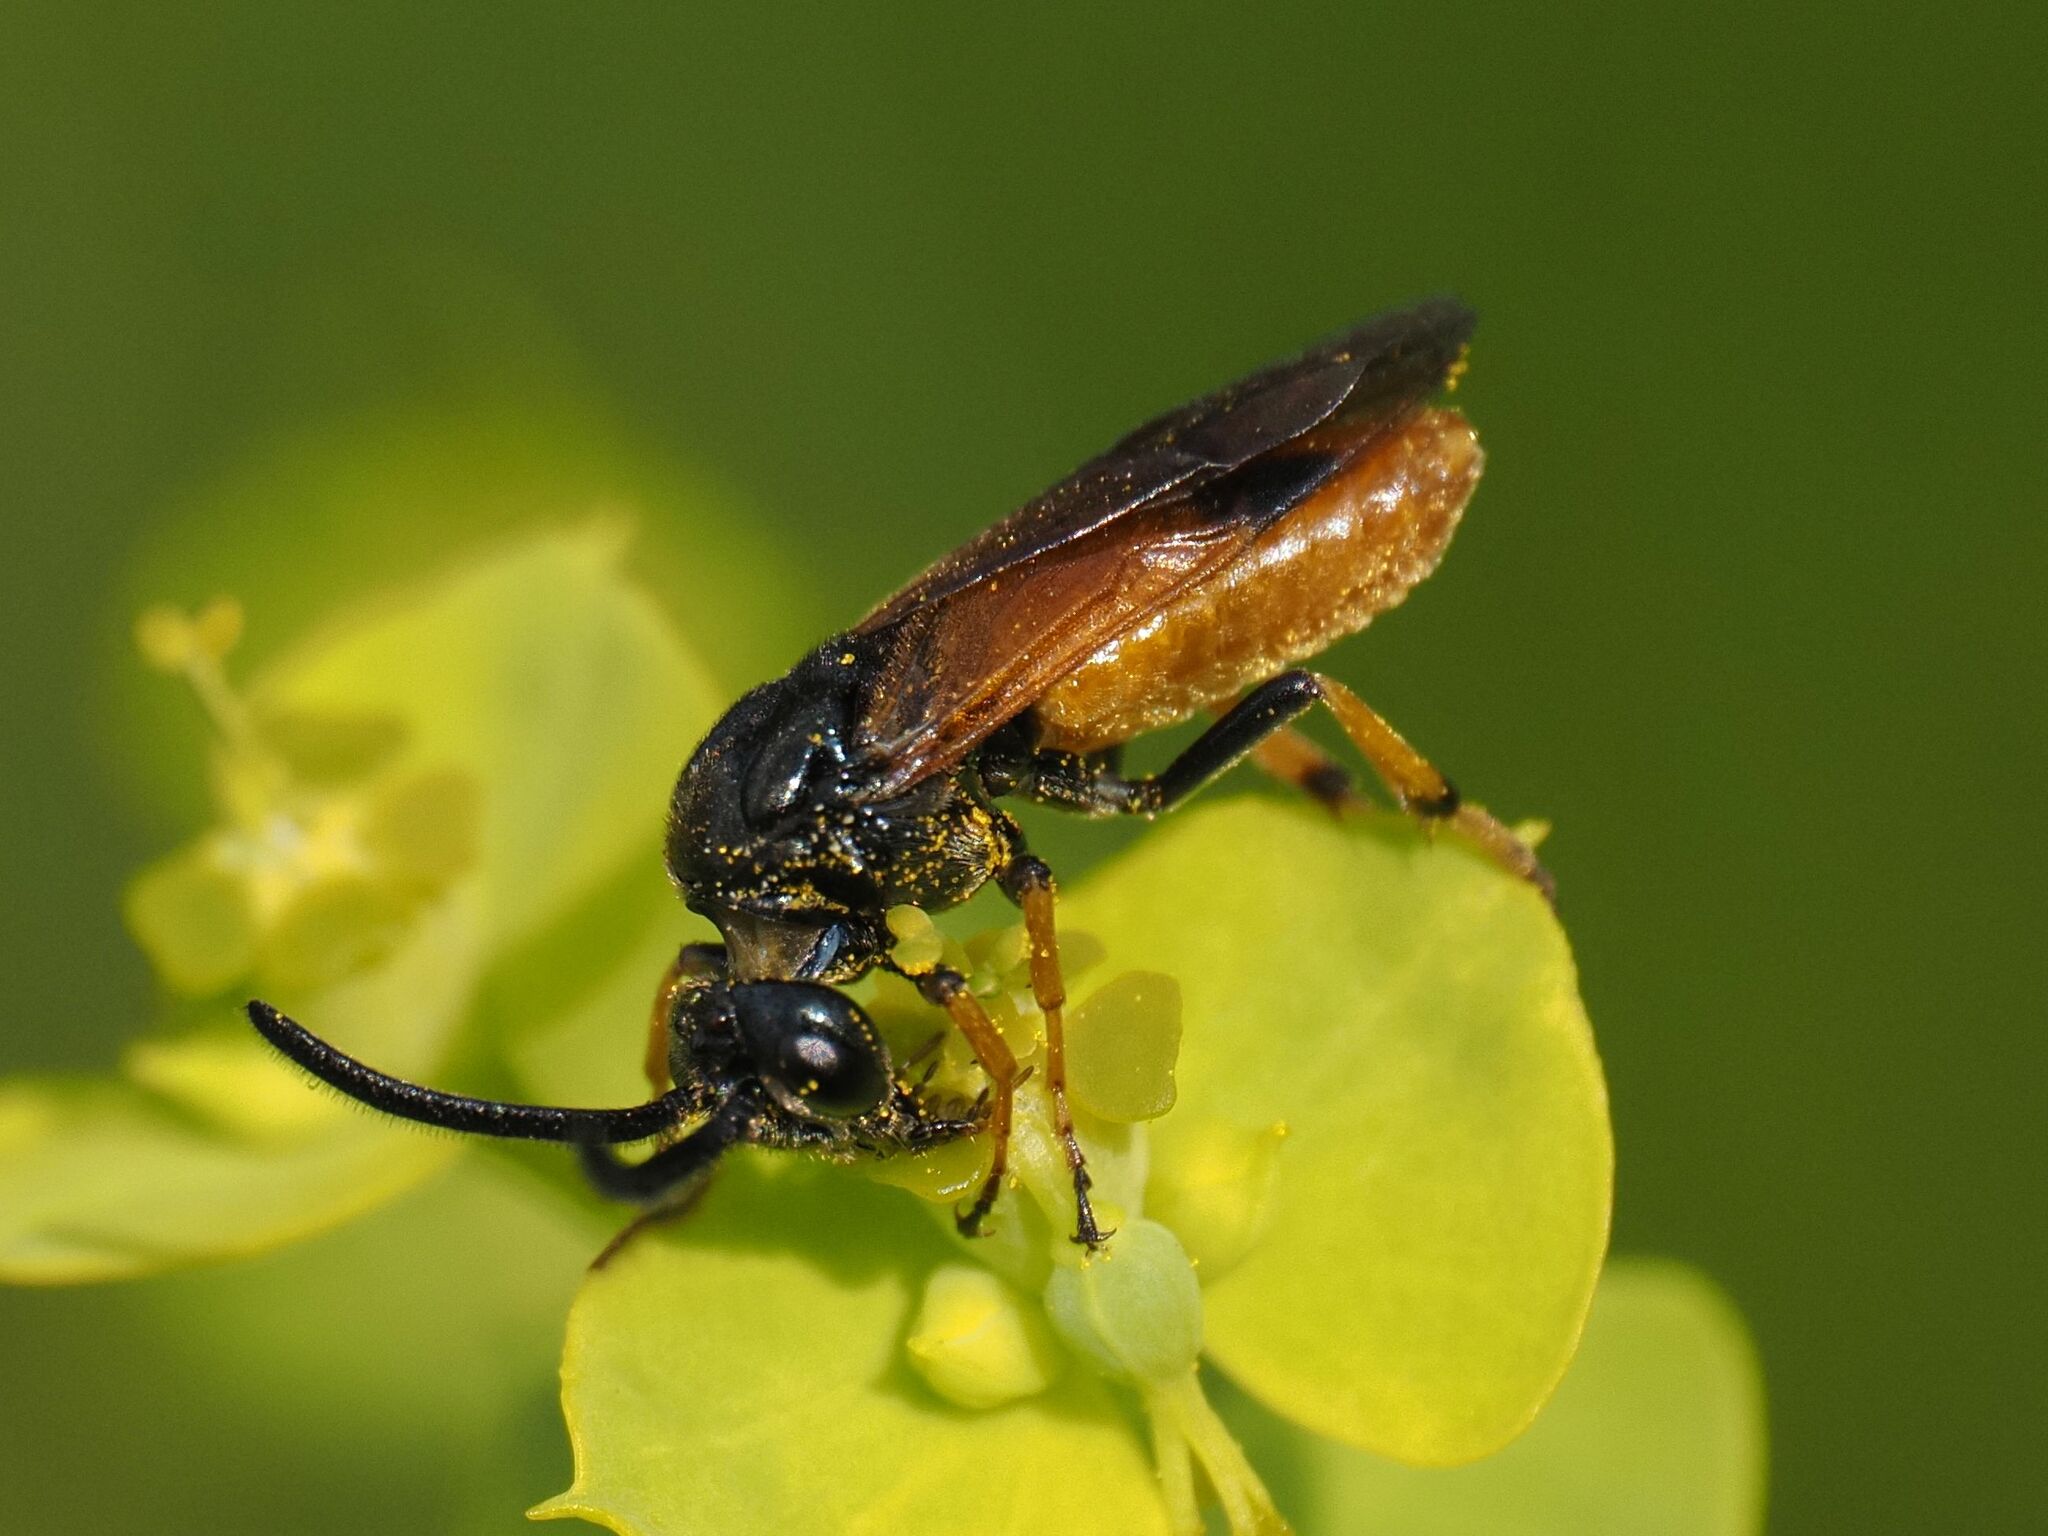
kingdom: Animalia
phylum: Arthropoda
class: Insecta
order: Hymenoptera
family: Argidae
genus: Arge
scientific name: Arge melanochra
